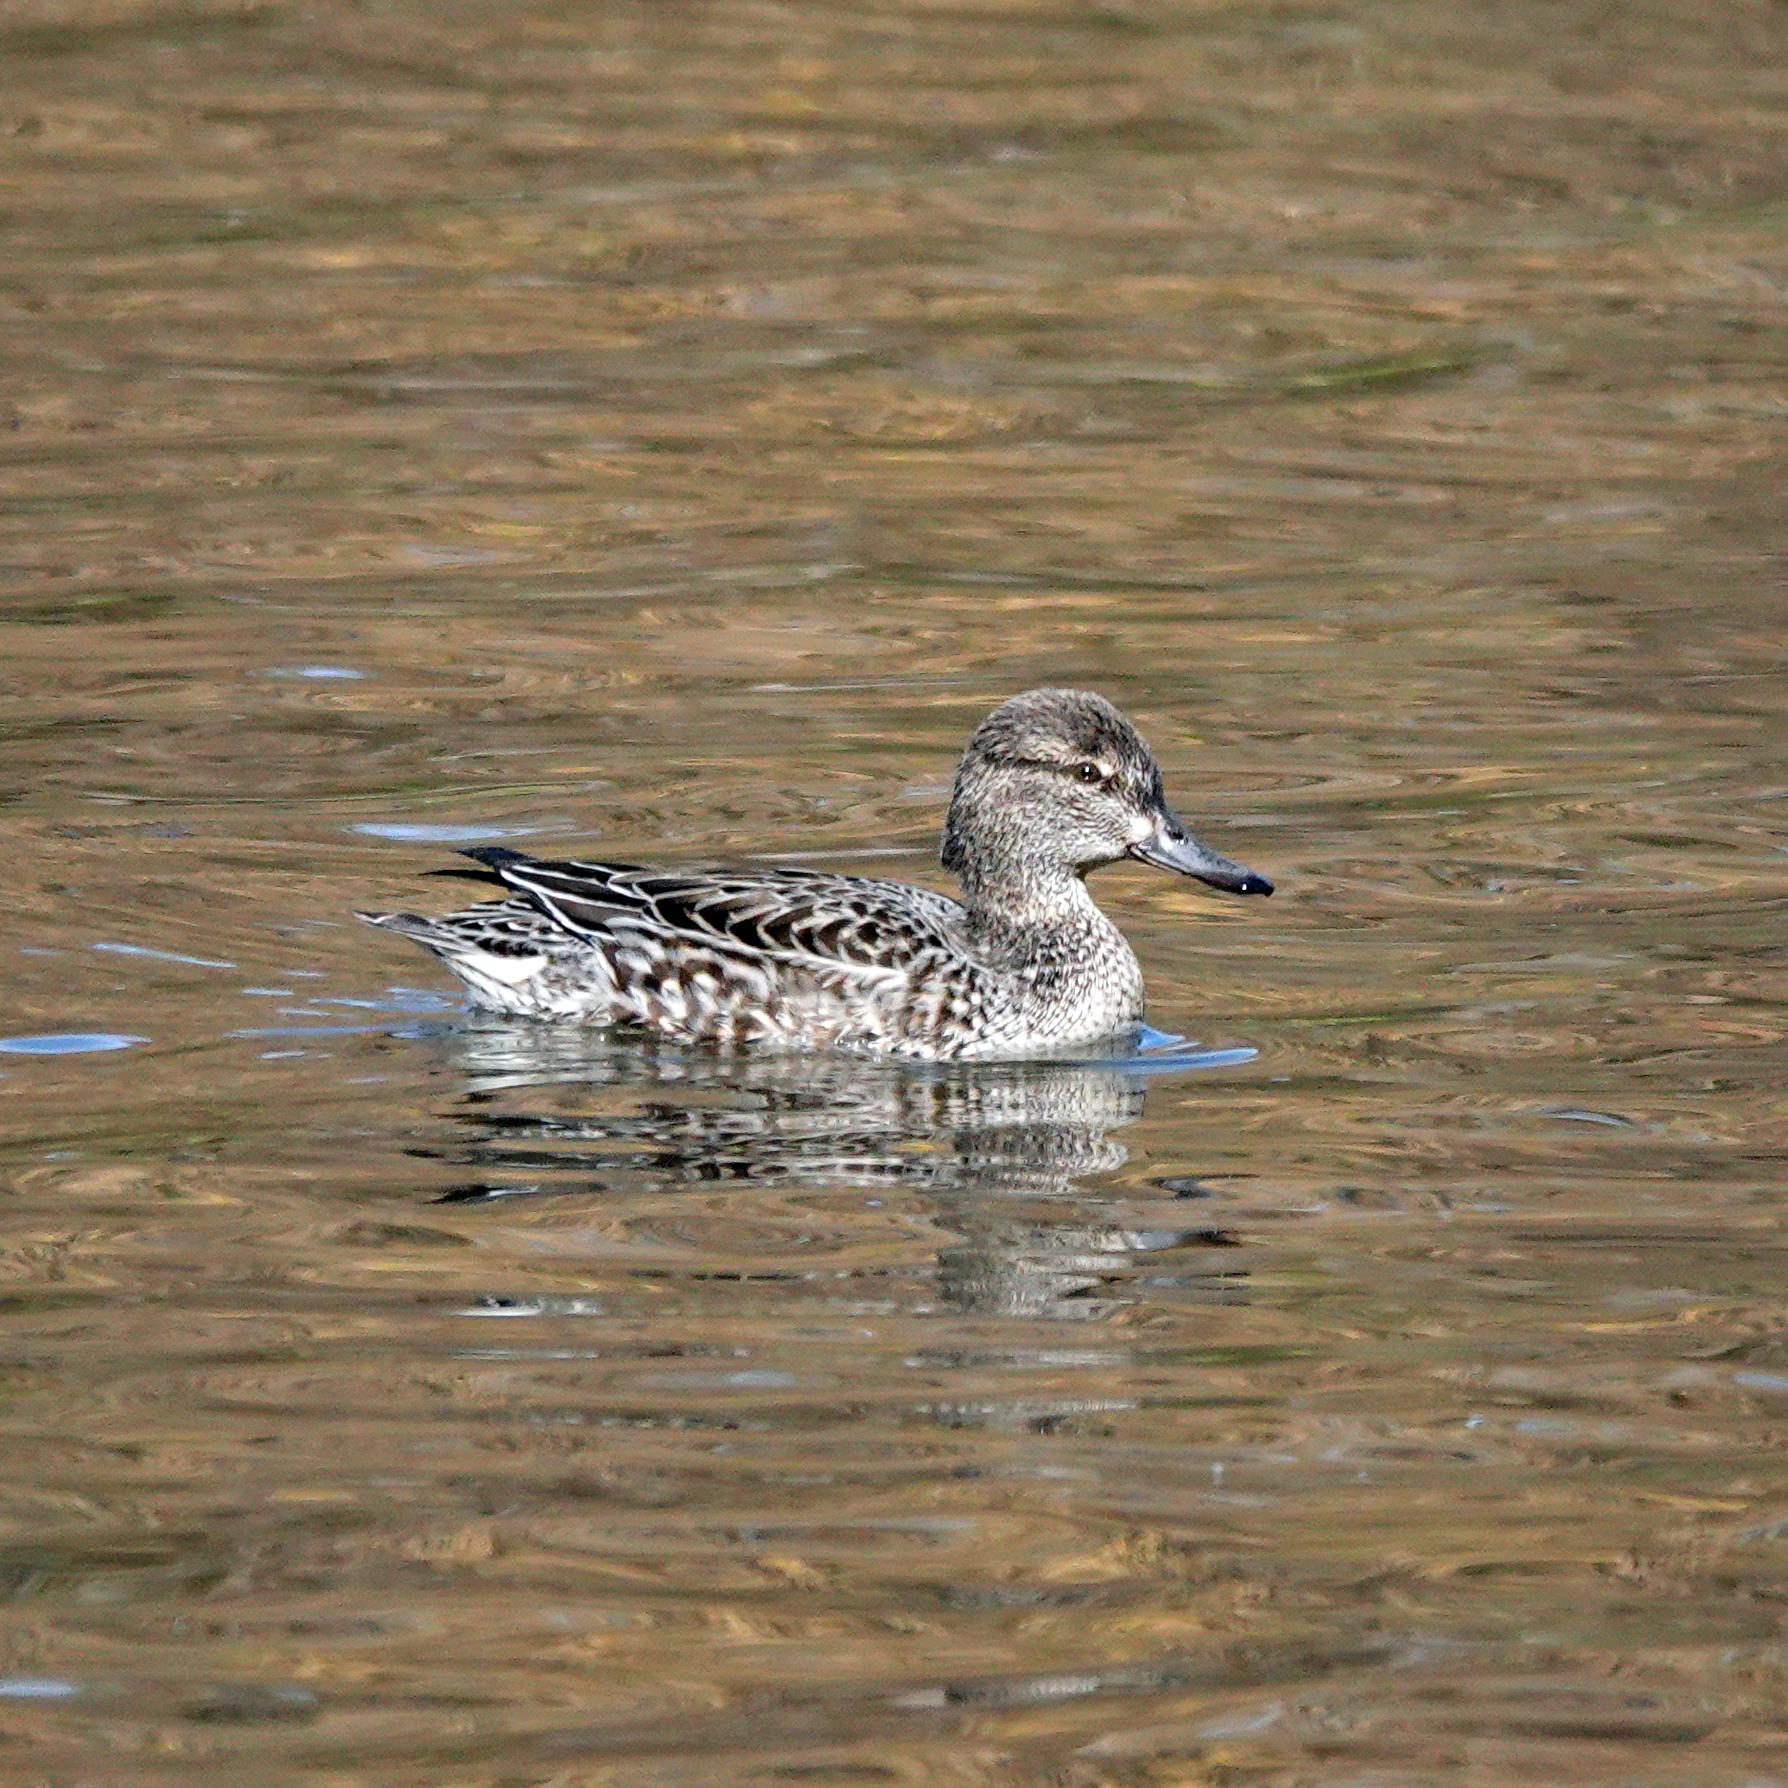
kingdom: Animalia
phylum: Chordata
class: Aves
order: Anseriformes
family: Anatidae
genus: Anas
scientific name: Anas crecca
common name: Eurasian teal
